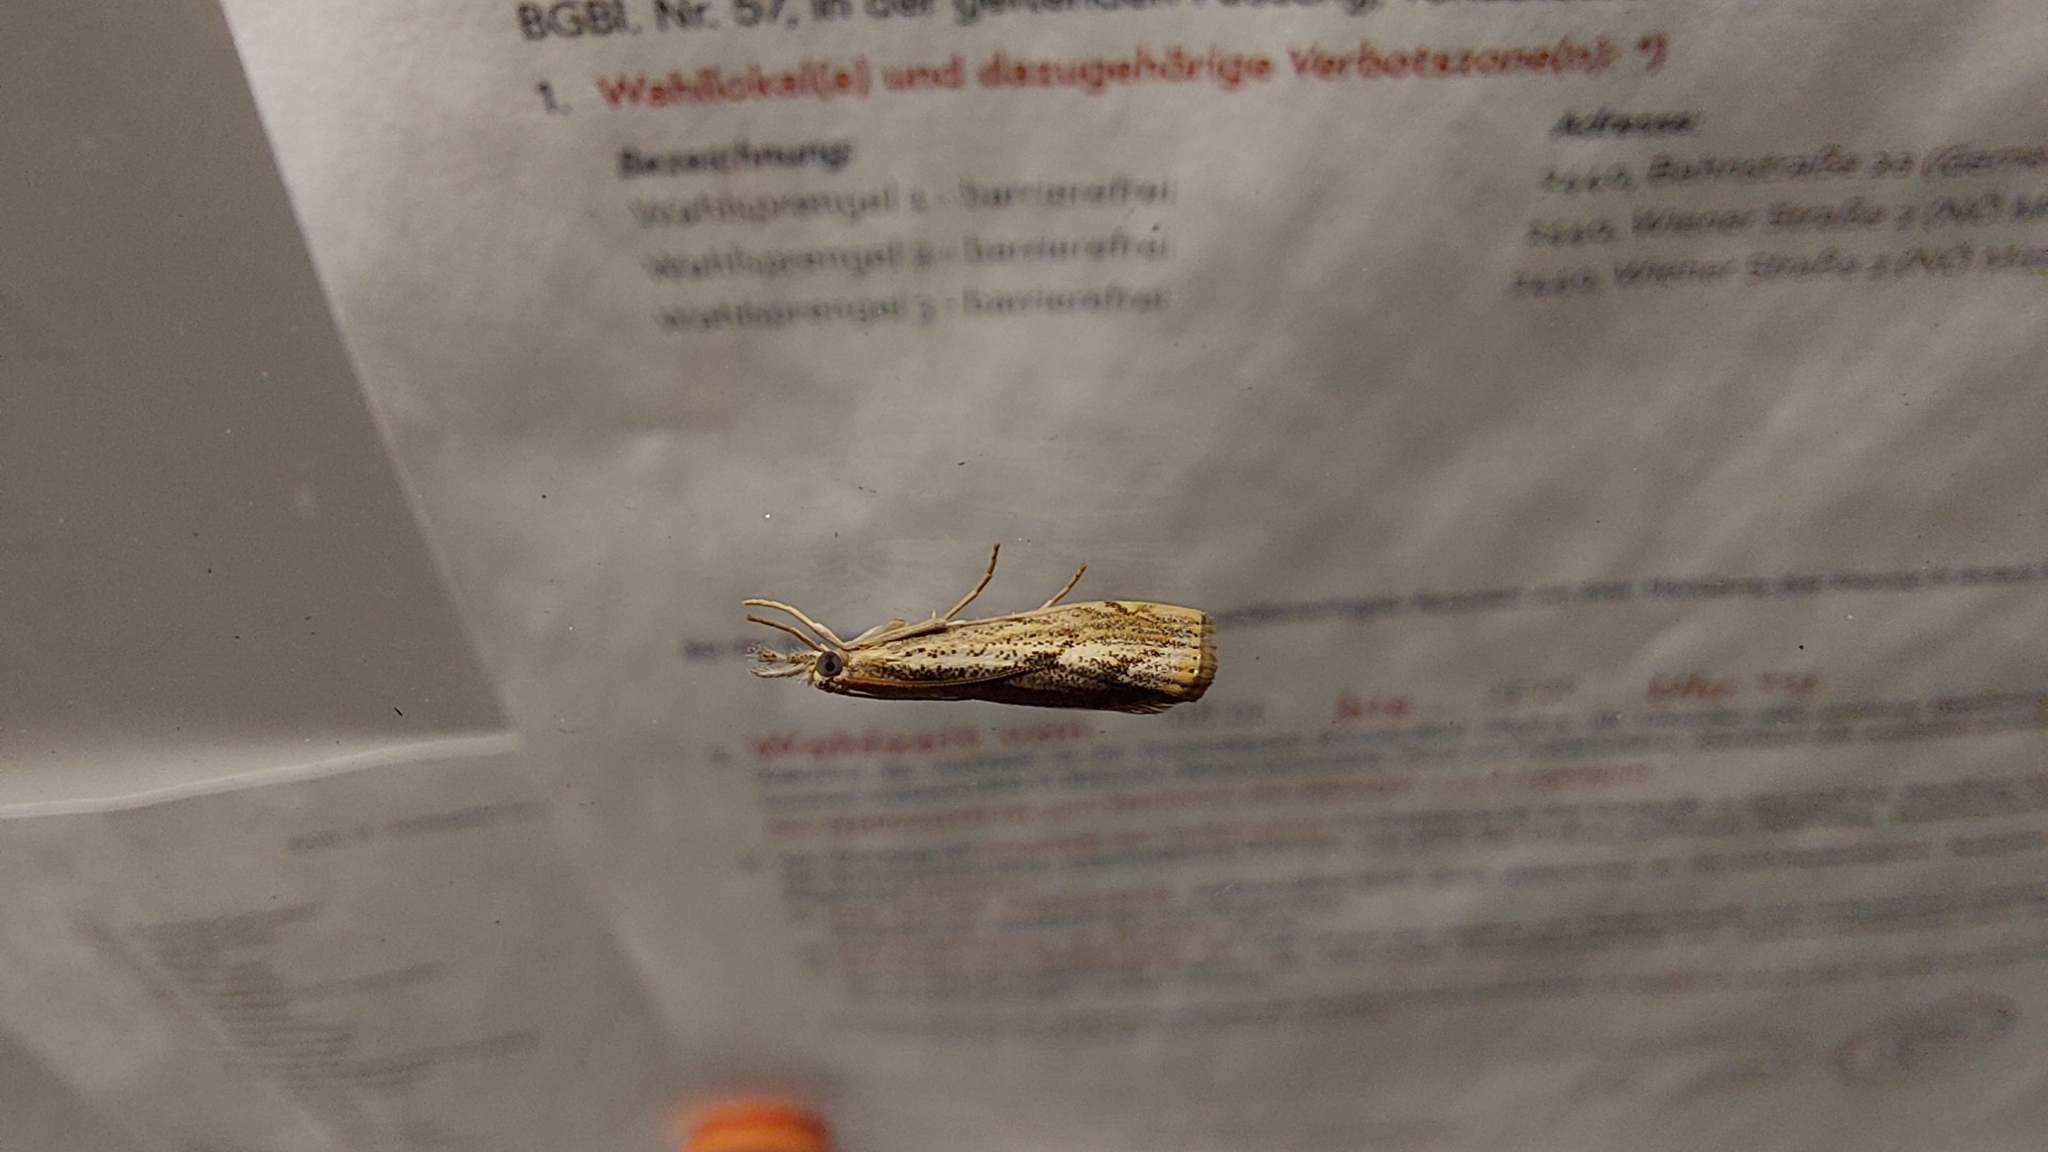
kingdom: Animalia
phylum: Arthropoda
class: Insecta
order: Lepidoptera
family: Crambidae
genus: Agriphila
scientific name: Agriphila geniculea
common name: Elbow-stripe grass-veneer
